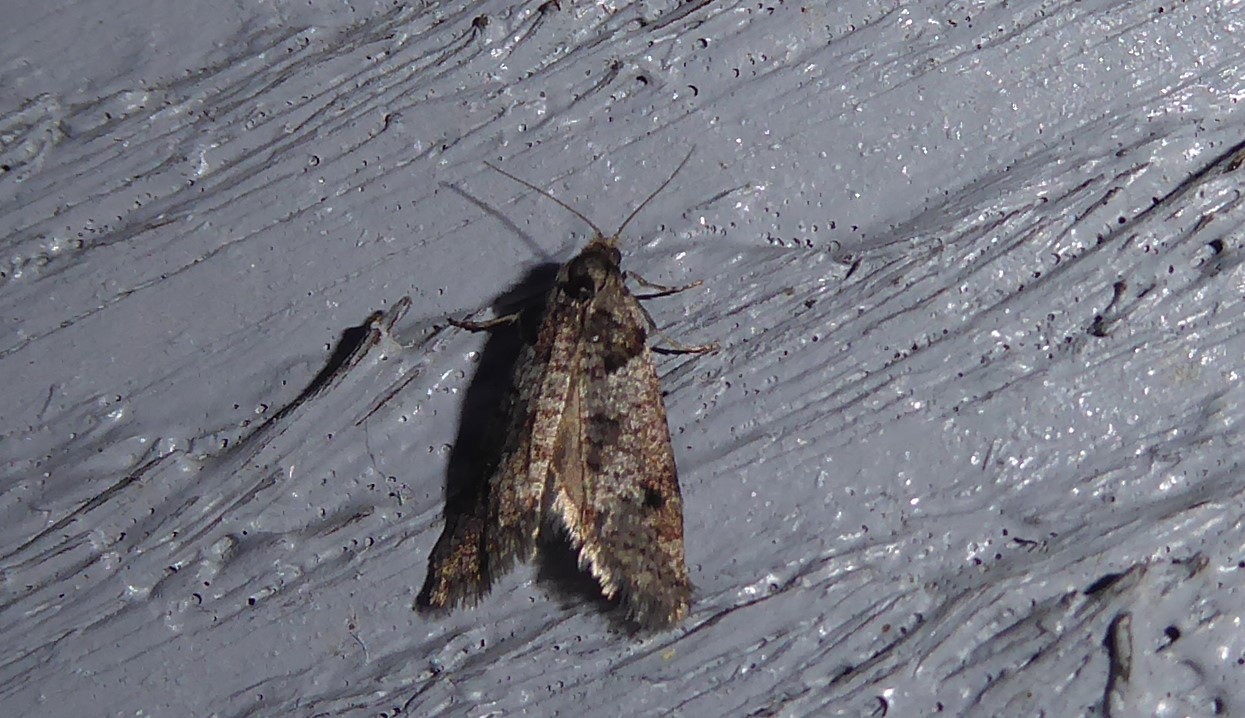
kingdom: Animalia
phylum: Arthropoda
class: Insecta
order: Lepidoptera
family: Psychidae
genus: Lepidoscia
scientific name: Lepidoscia heliochares
